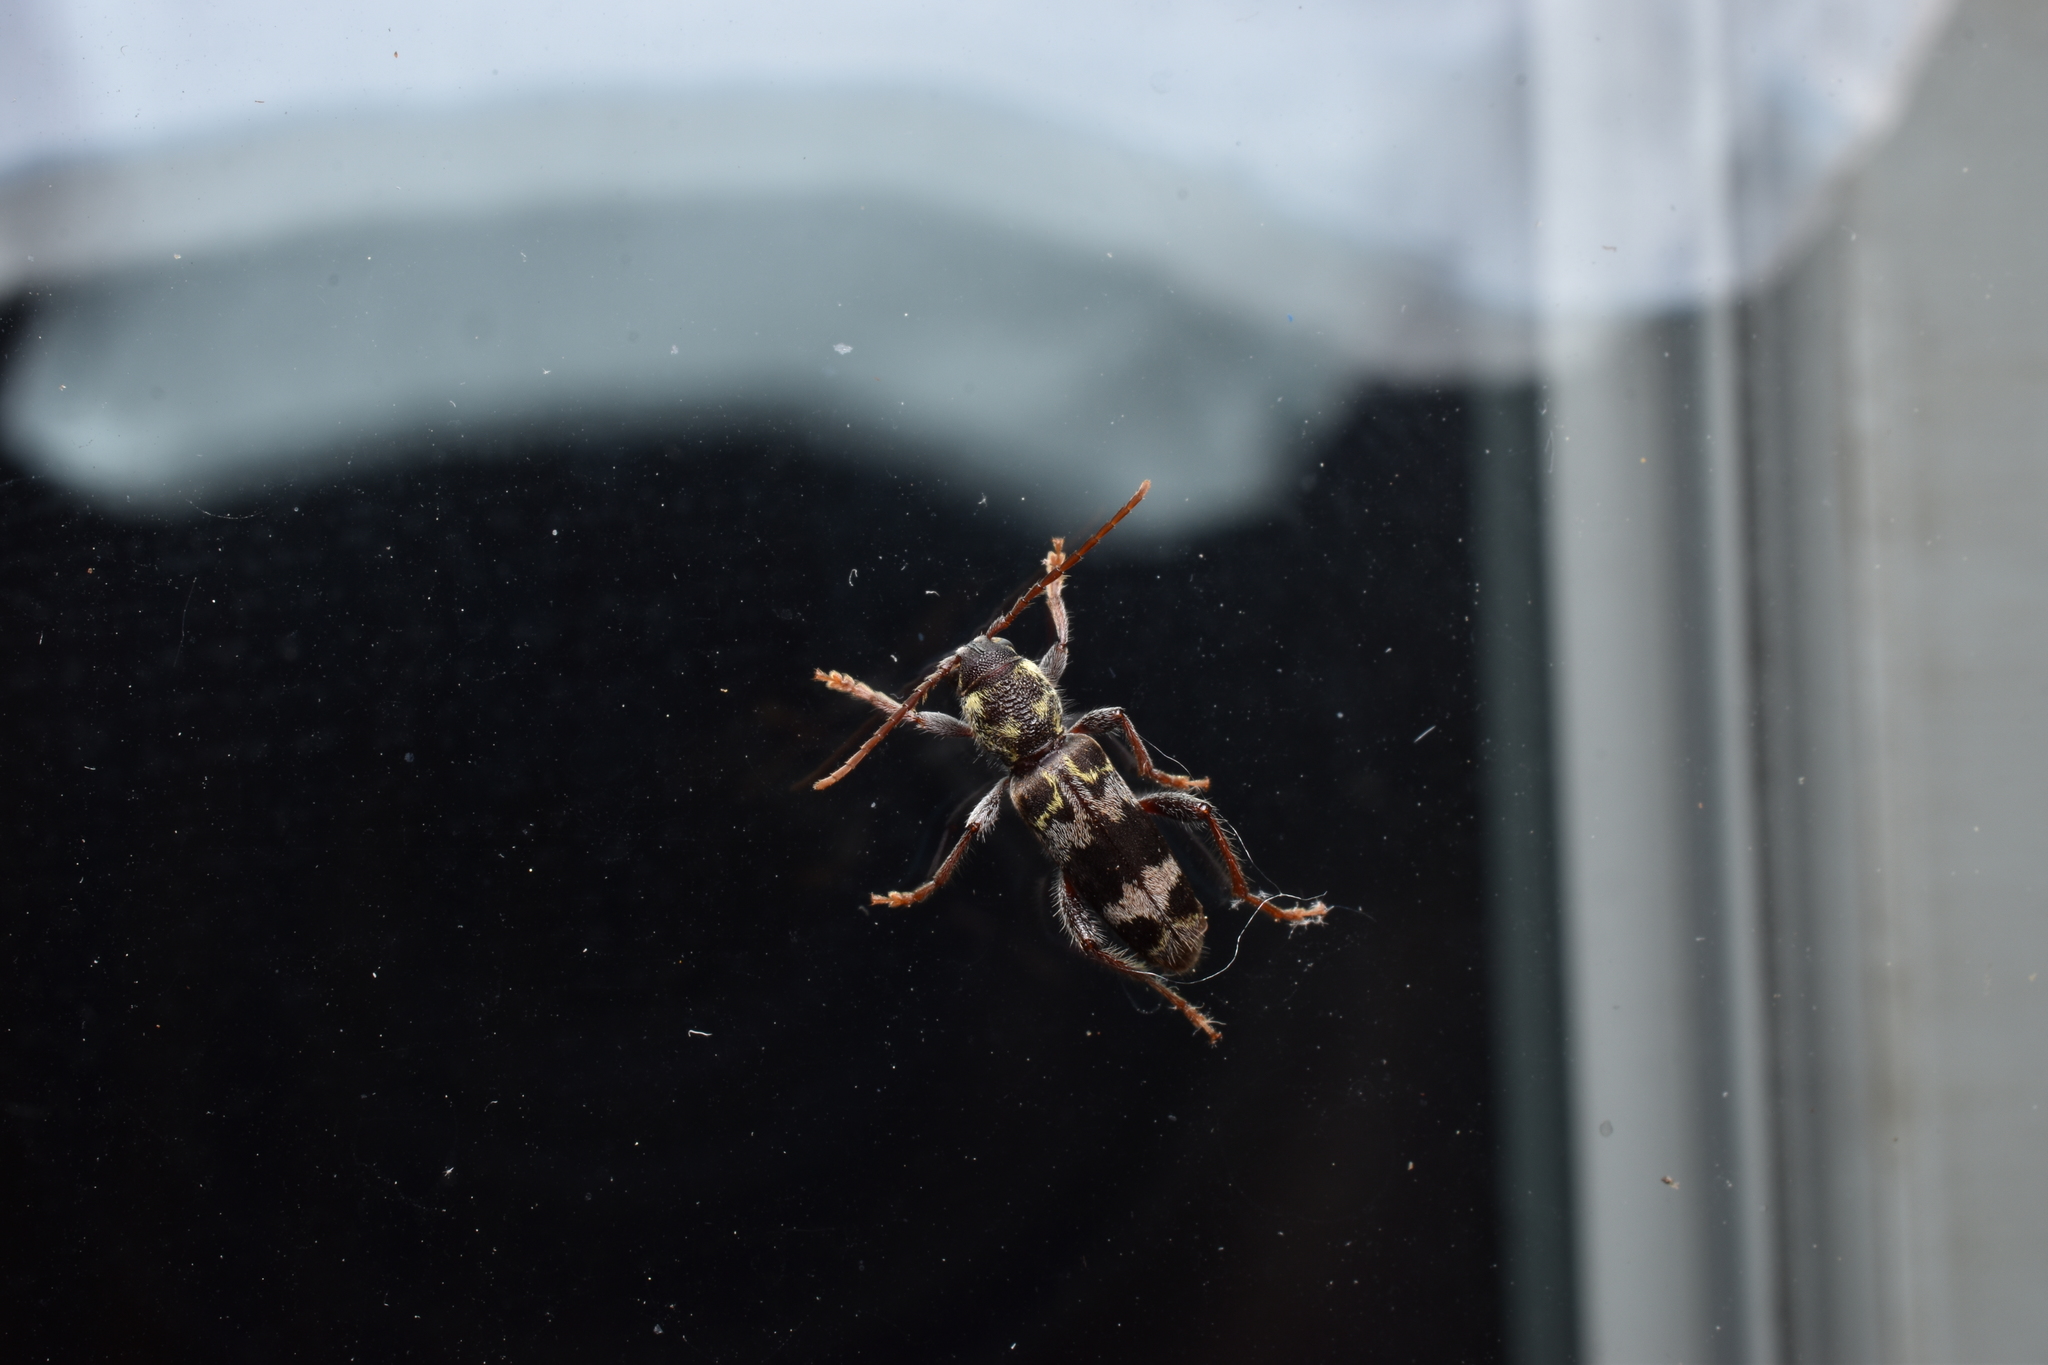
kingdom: Animalia
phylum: Arthropoda
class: Insecta
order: Coleoptera
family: Cerambycidae
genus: Xylotrechus
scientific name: Xylotrechus colonus
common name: Long-horned beetle
